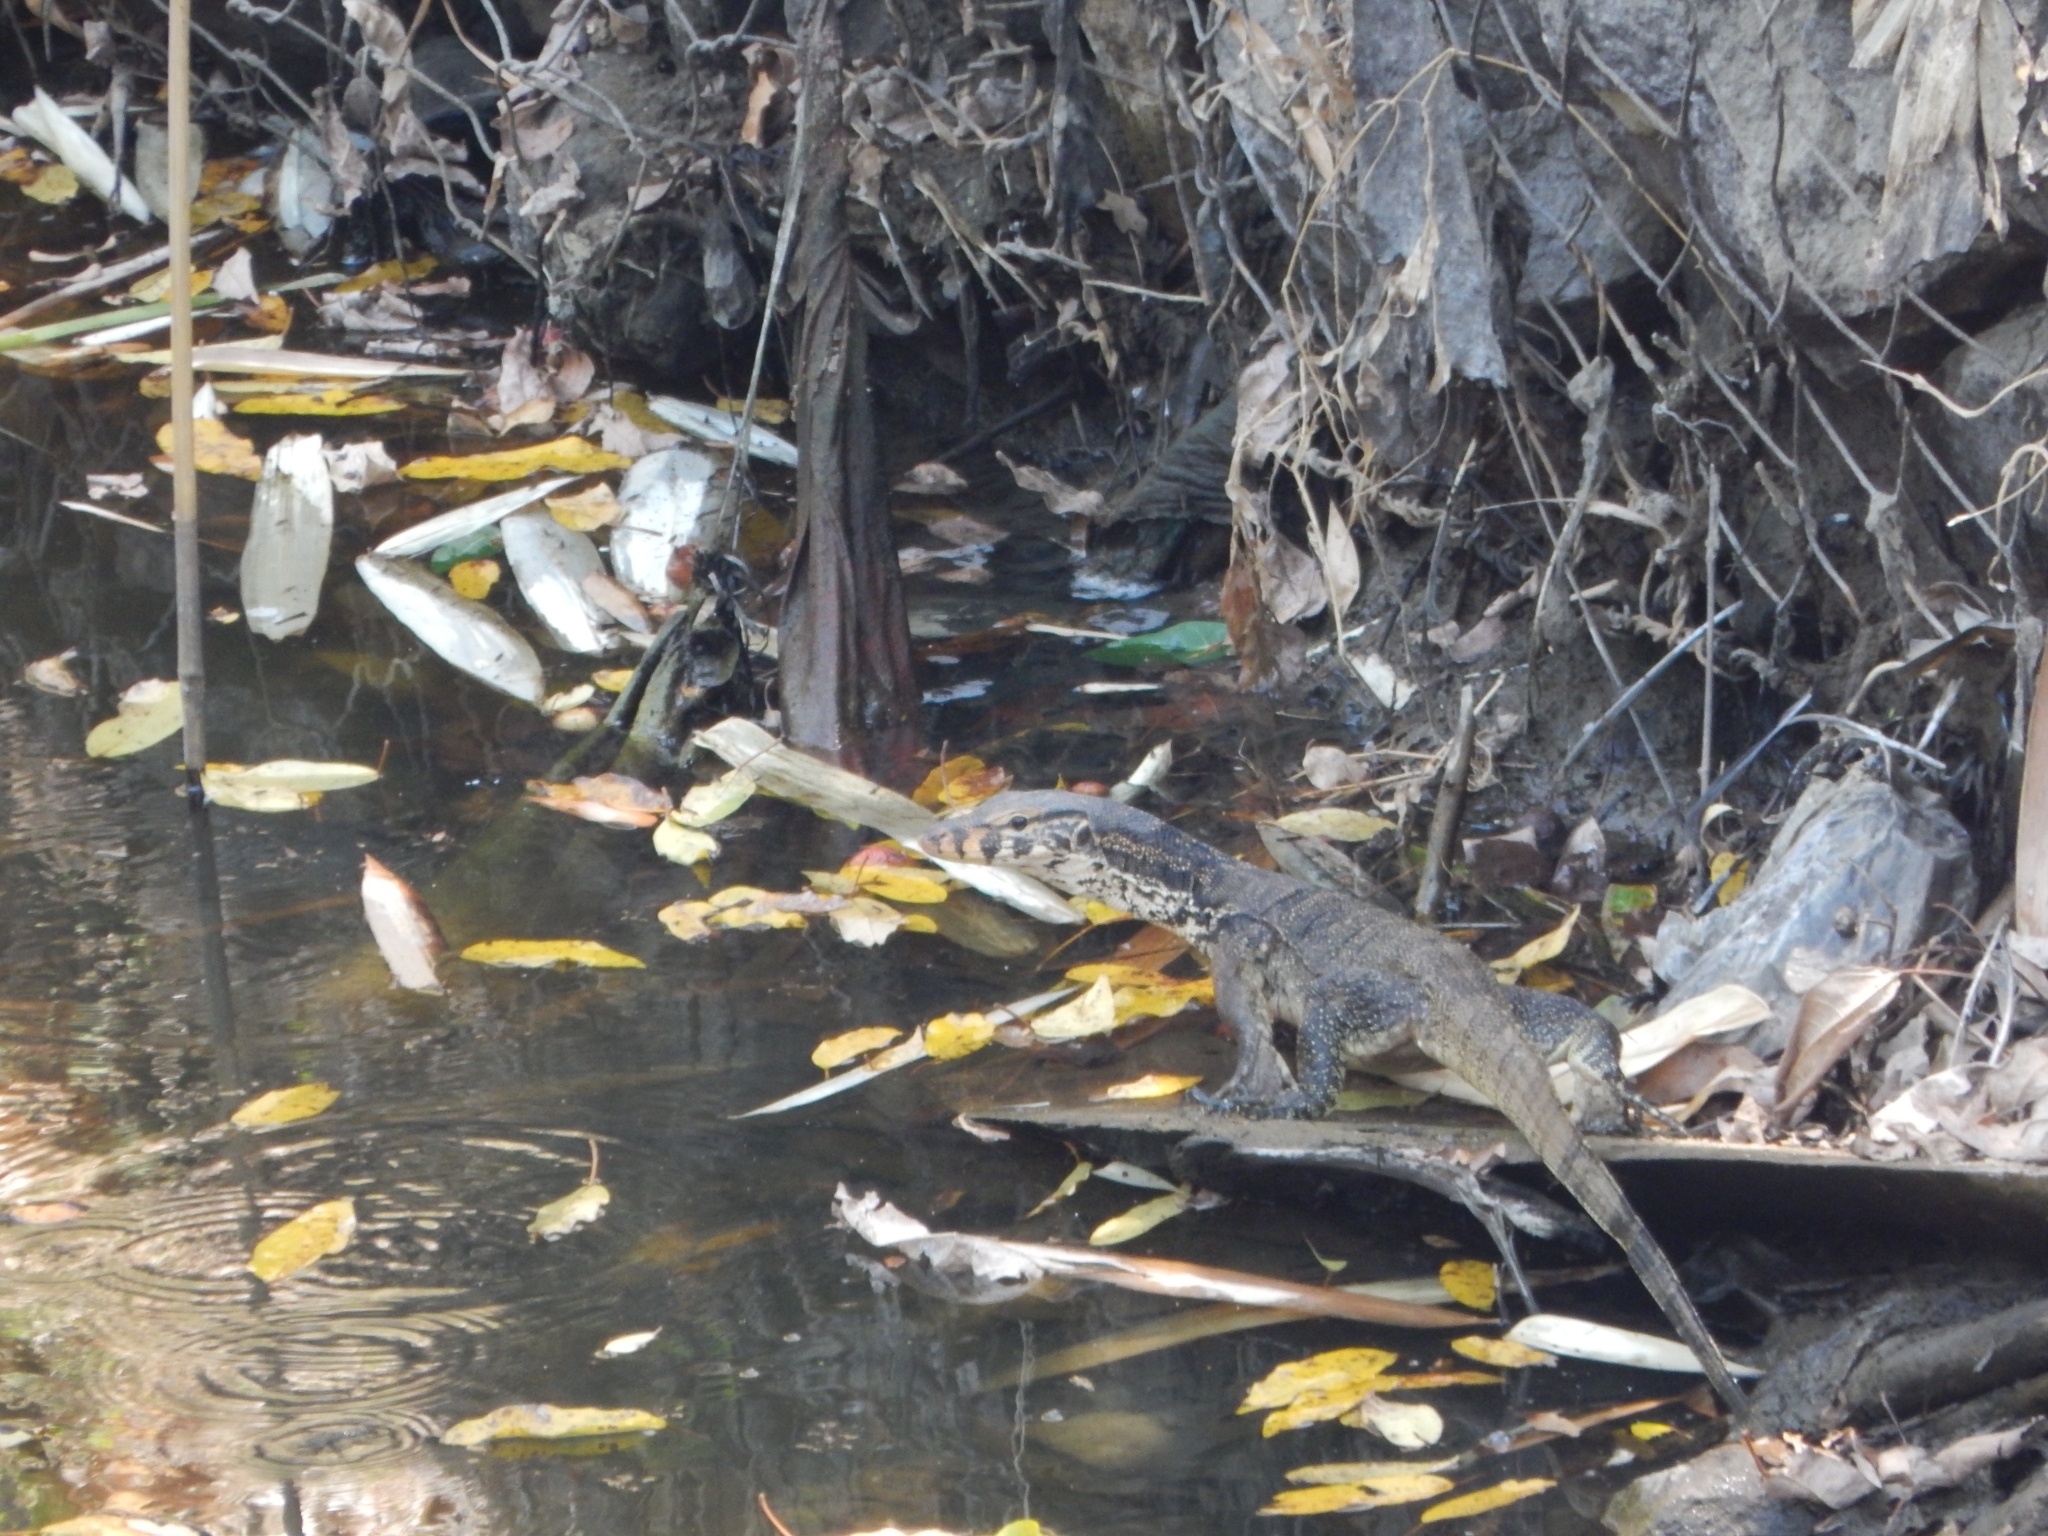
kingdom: Animalia
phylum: Chordata
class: Squamata
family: Varanidae
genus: Varanus
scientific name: Varanus salvator
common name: Common water monitor
